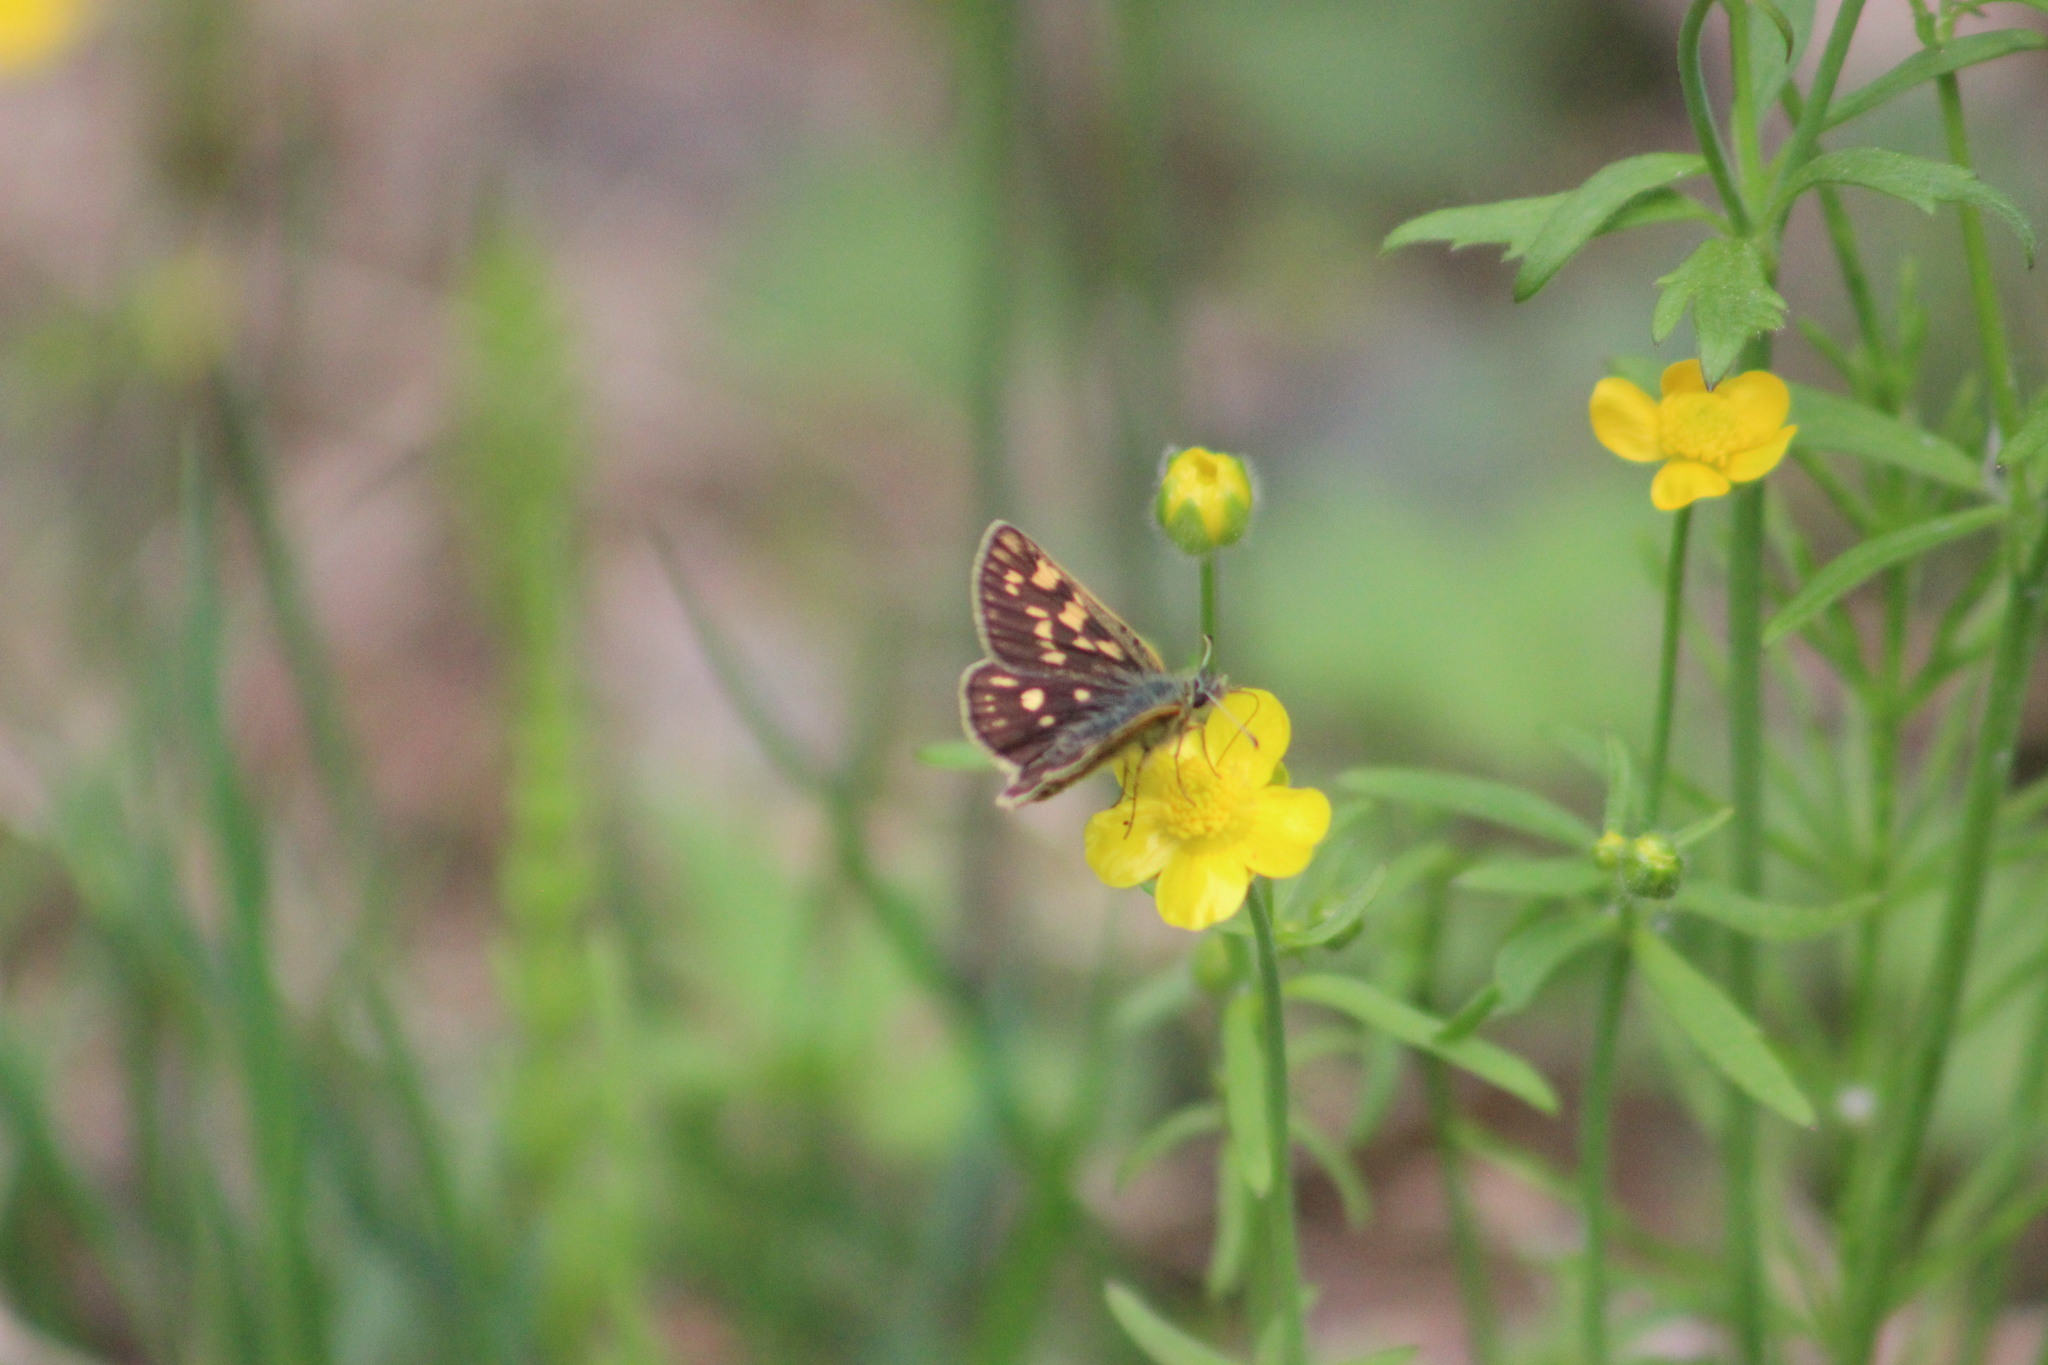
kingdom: Animalia
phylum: Arthropoda
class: Insecta
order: Lepidoptera
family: Hesperiidae
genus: Carterocephalus
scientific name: Carterocephalus palaemon
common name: Chequered skipper
